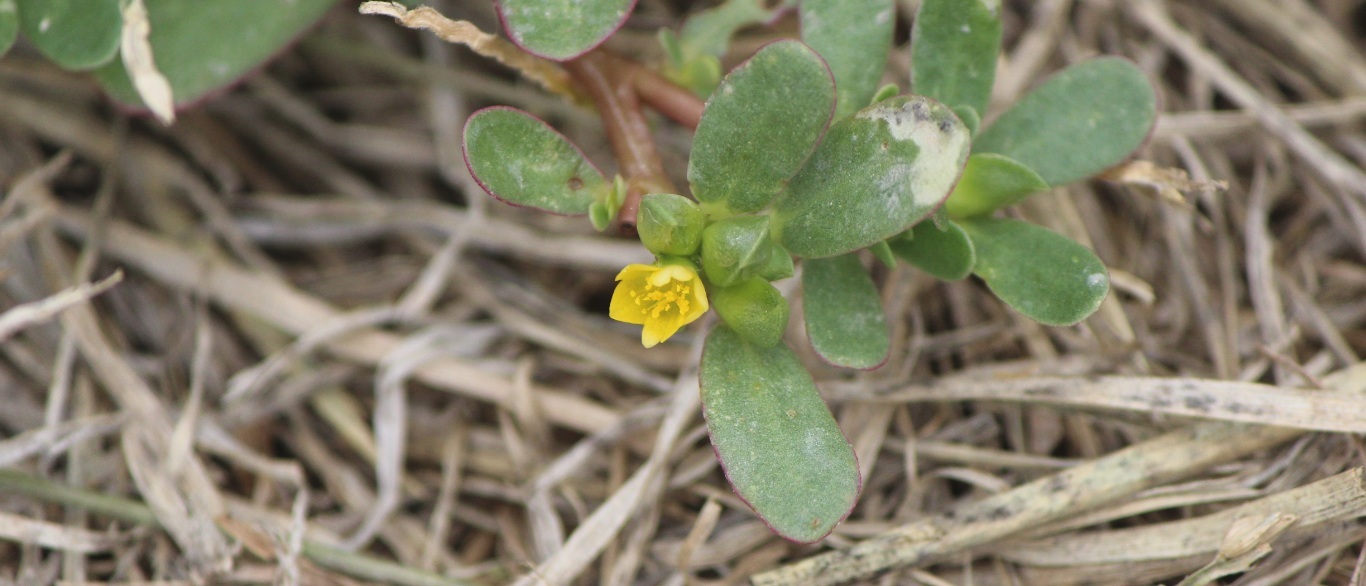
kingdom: Plantae
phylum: Tracheophyta
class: Magnoliopsida
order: Caryophyllales
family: Portulacaceae
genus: Portulaca
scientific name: Portulaca oleracea
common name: Common purslane
